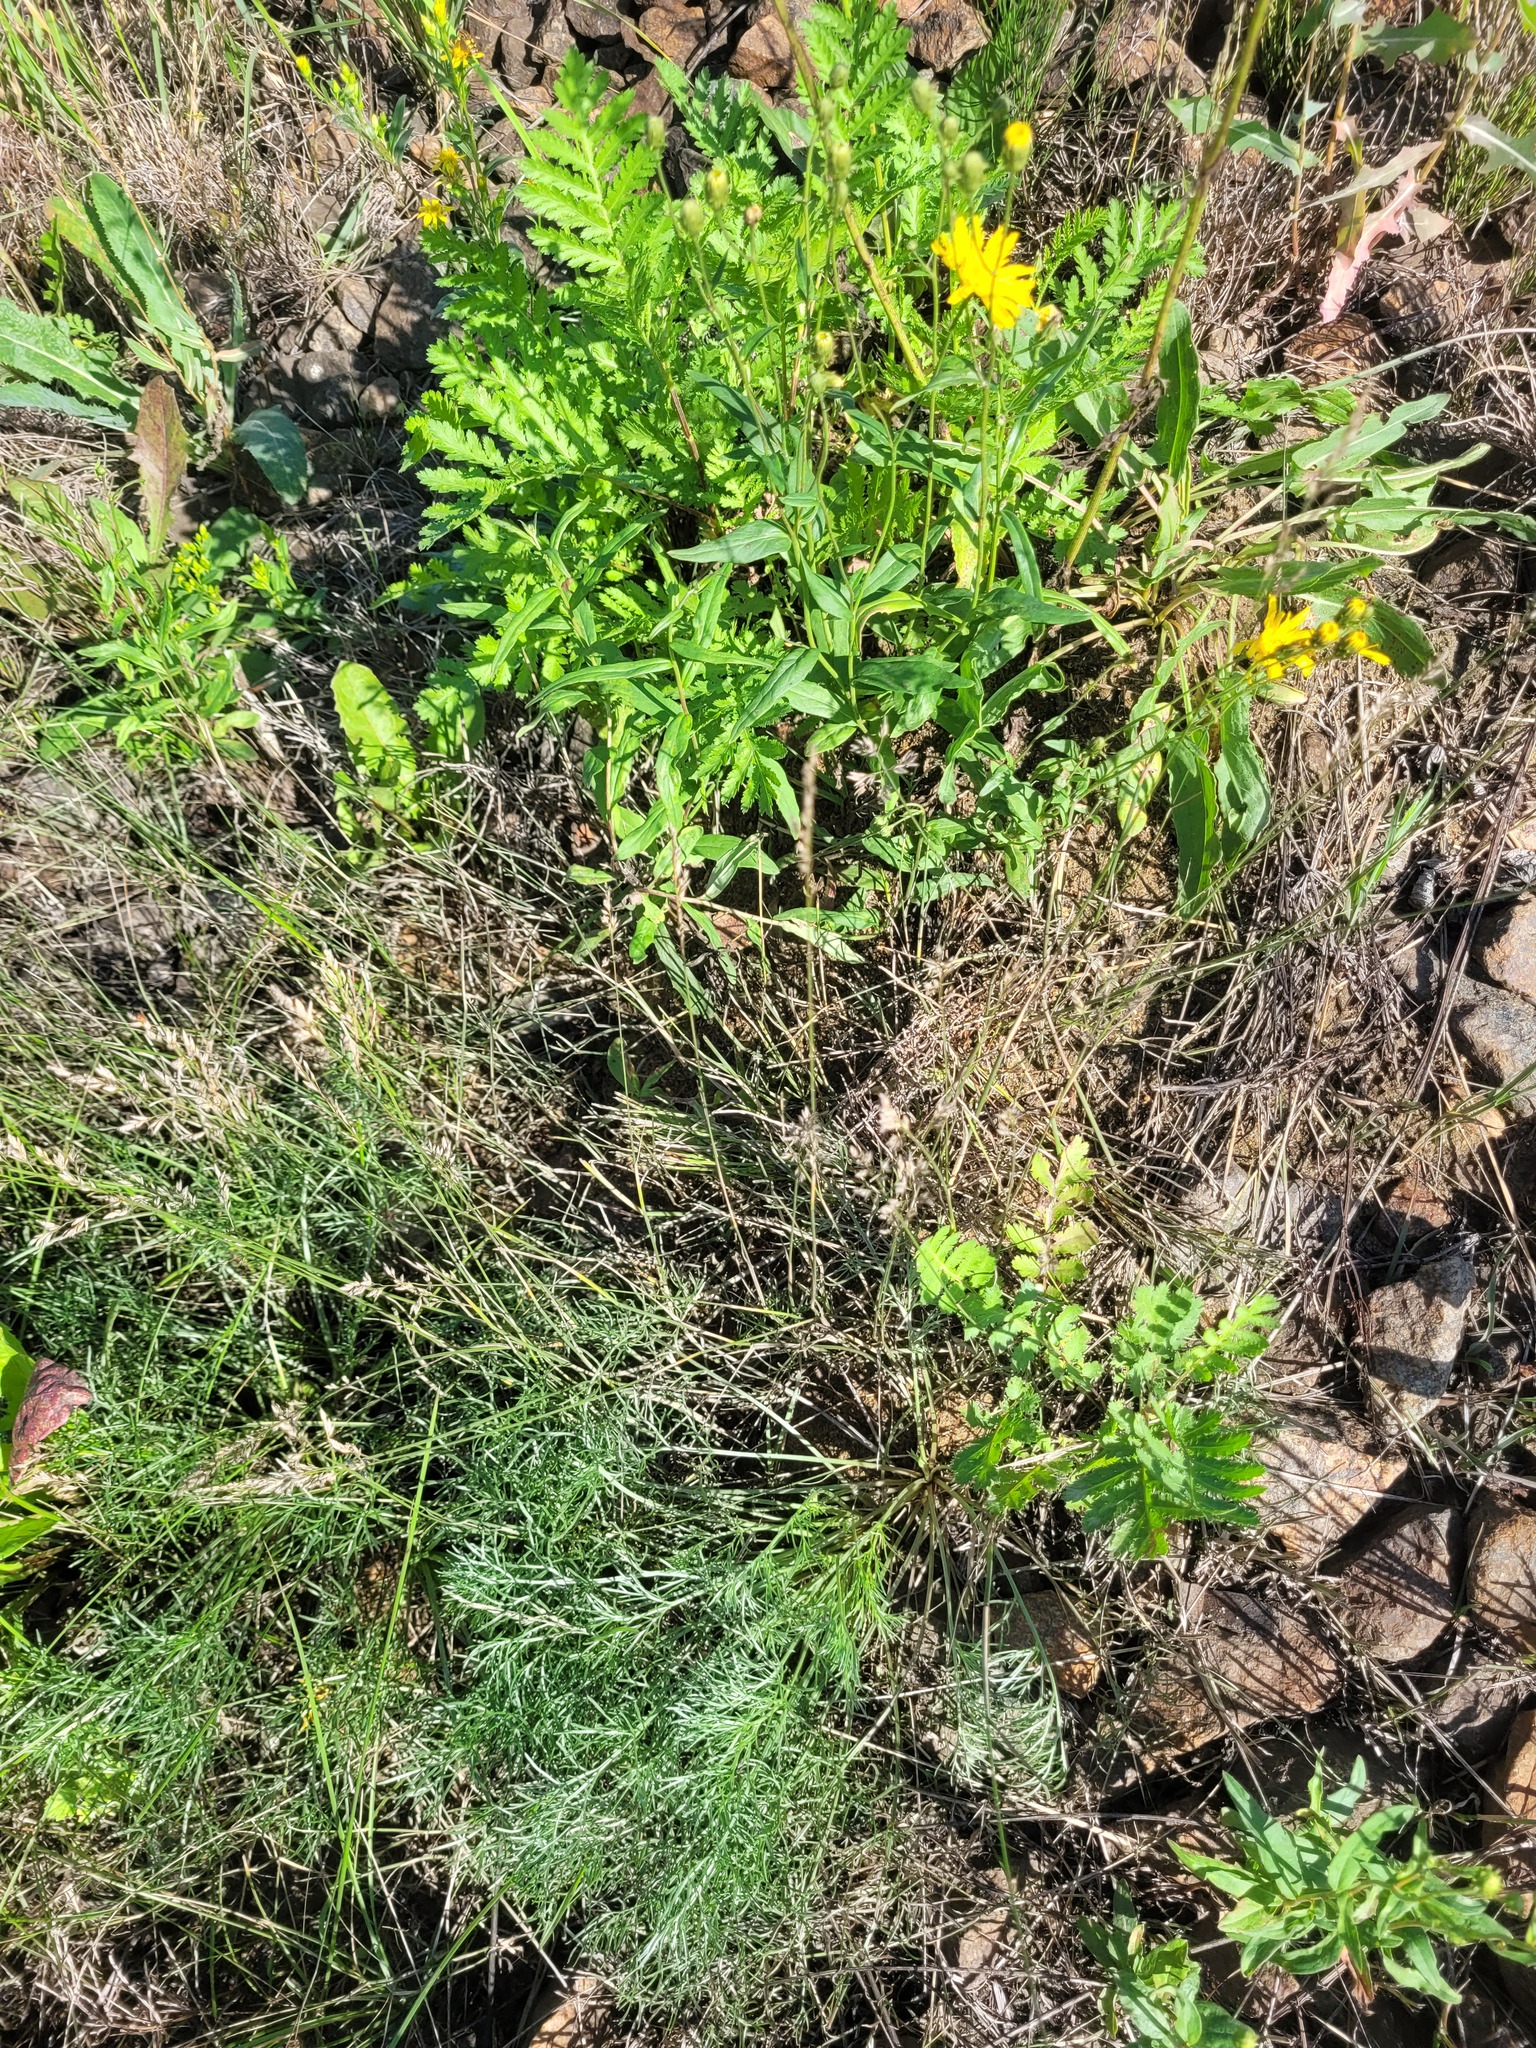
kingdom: Plantae
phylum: Tracheophyta
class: Liliopsida
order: Poales
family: Poaceae
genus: Poa
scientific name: Poa compressa
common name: Canada bluegrass
